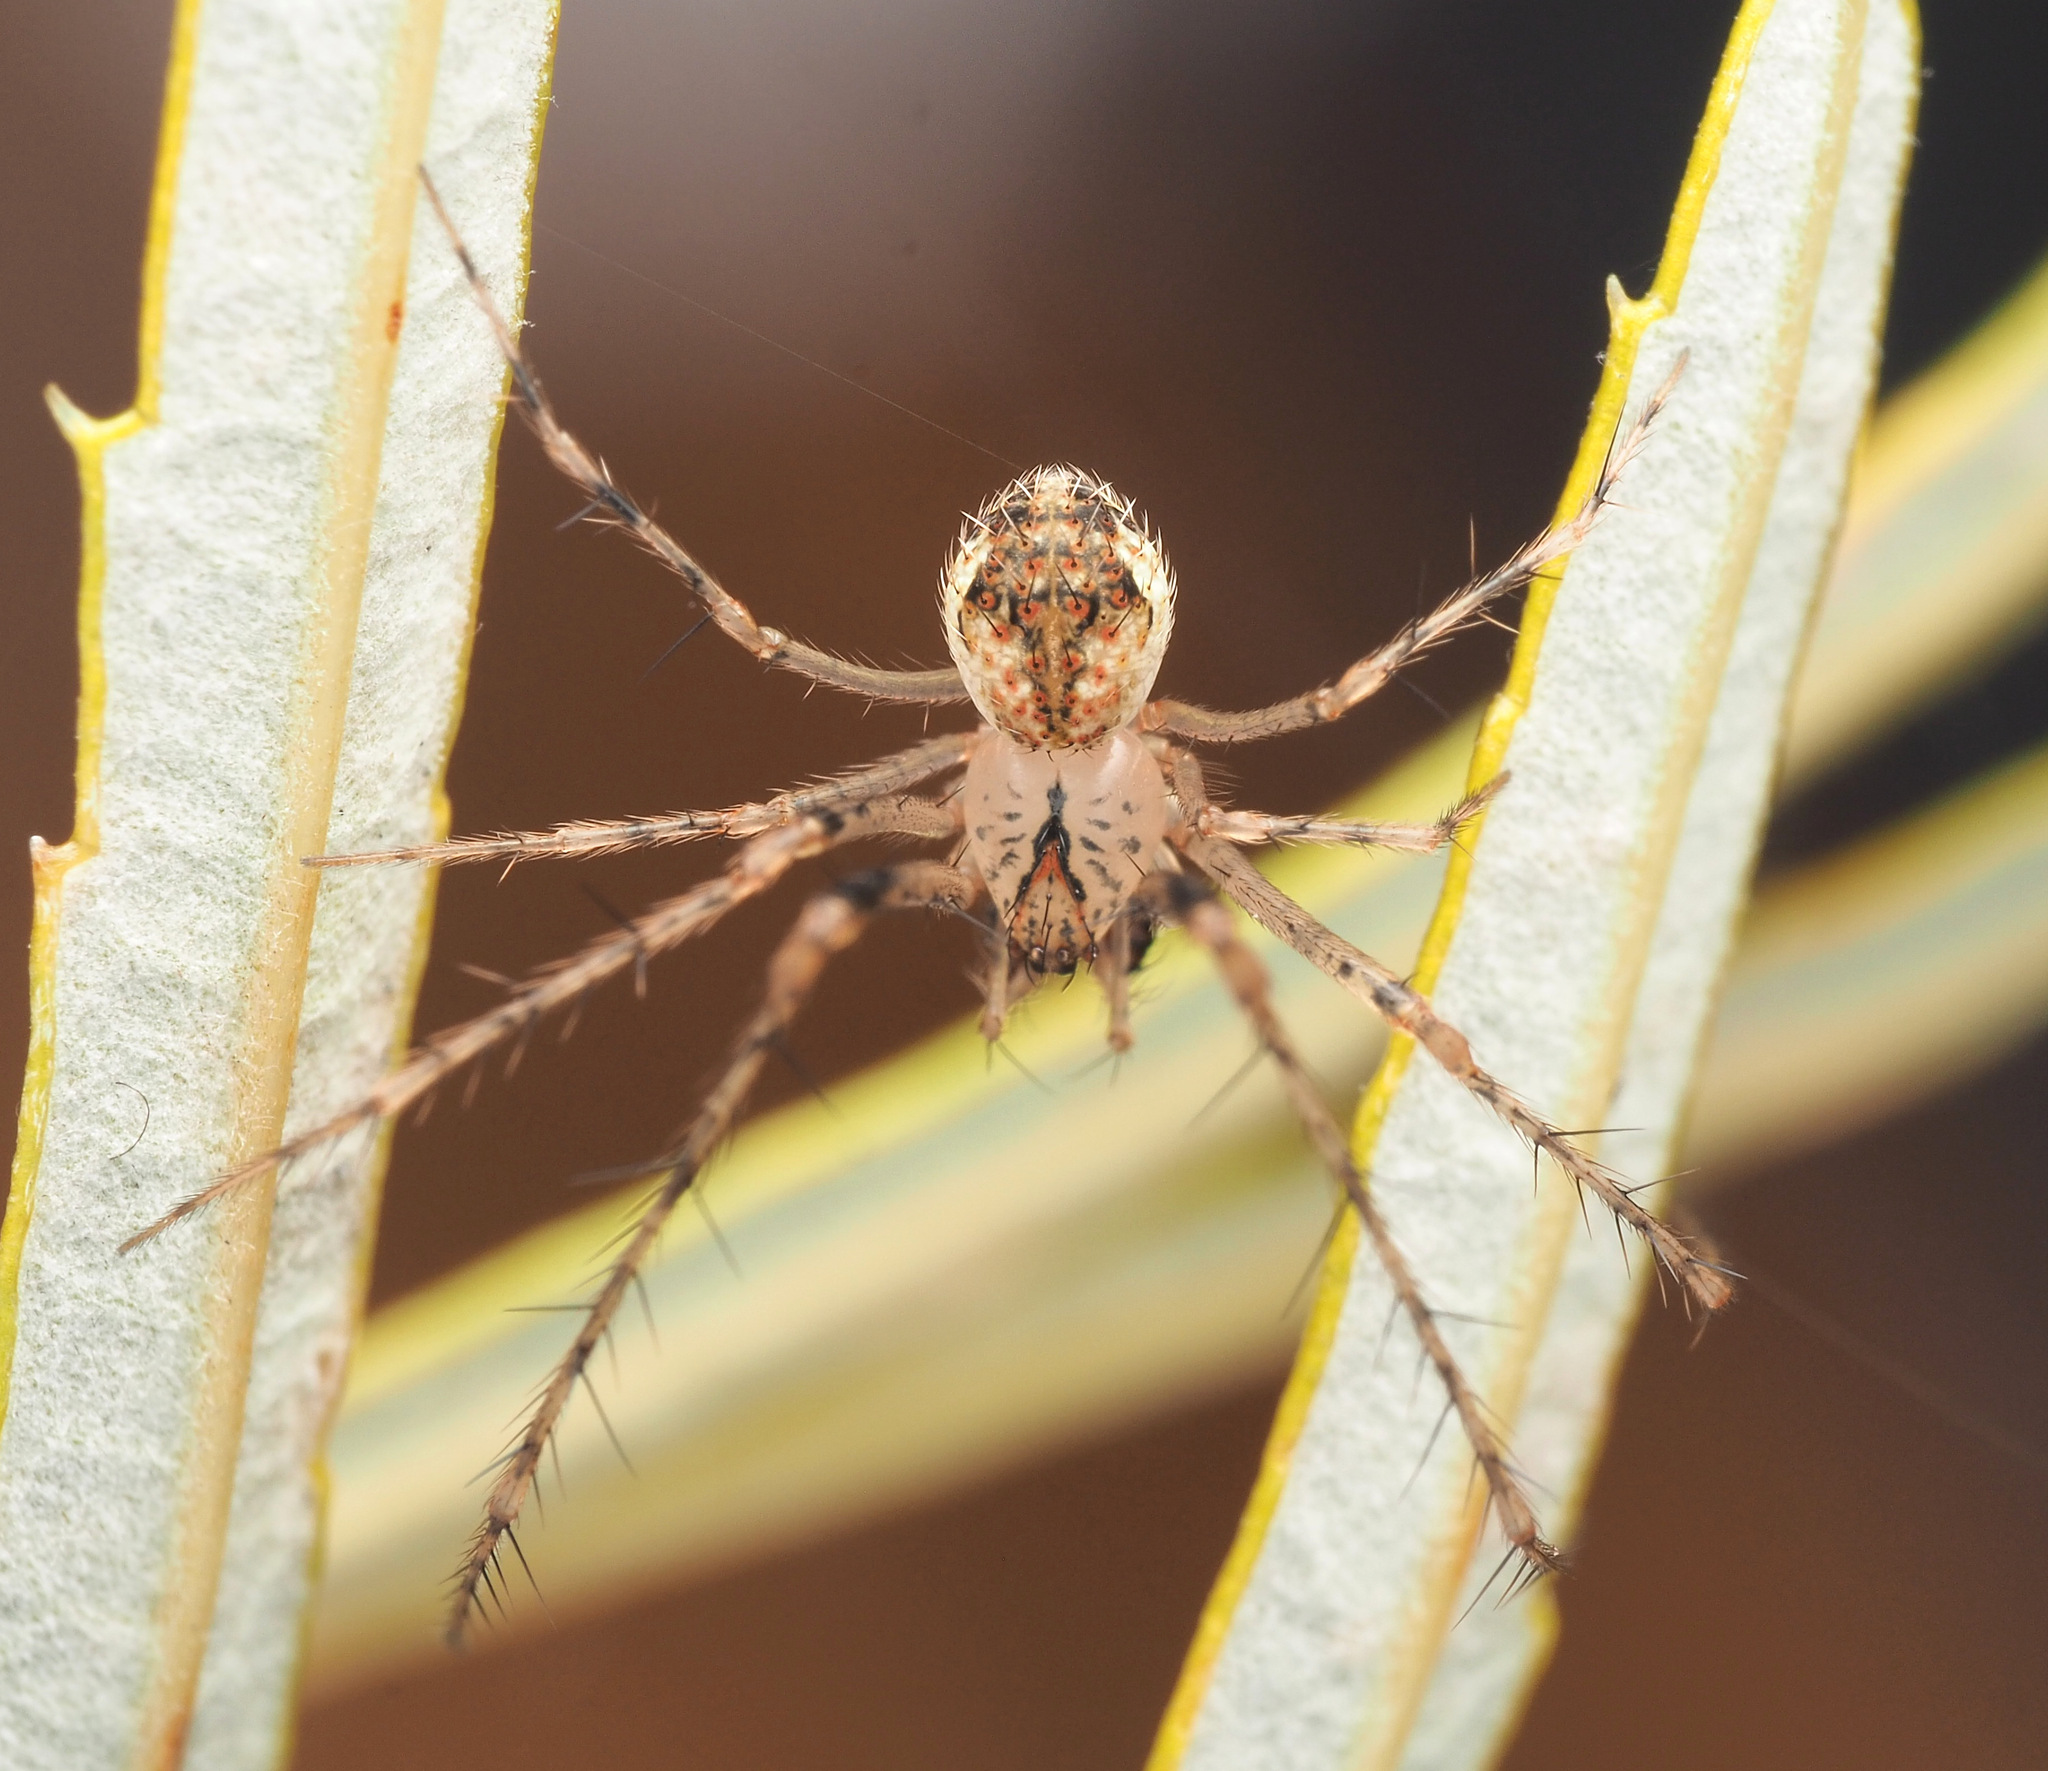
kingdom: Animalia
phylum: Arthropoda
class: Arachnida
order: Araneae
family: Mimetidae
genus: Australomimetus
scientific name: Australomimetus spinosus
